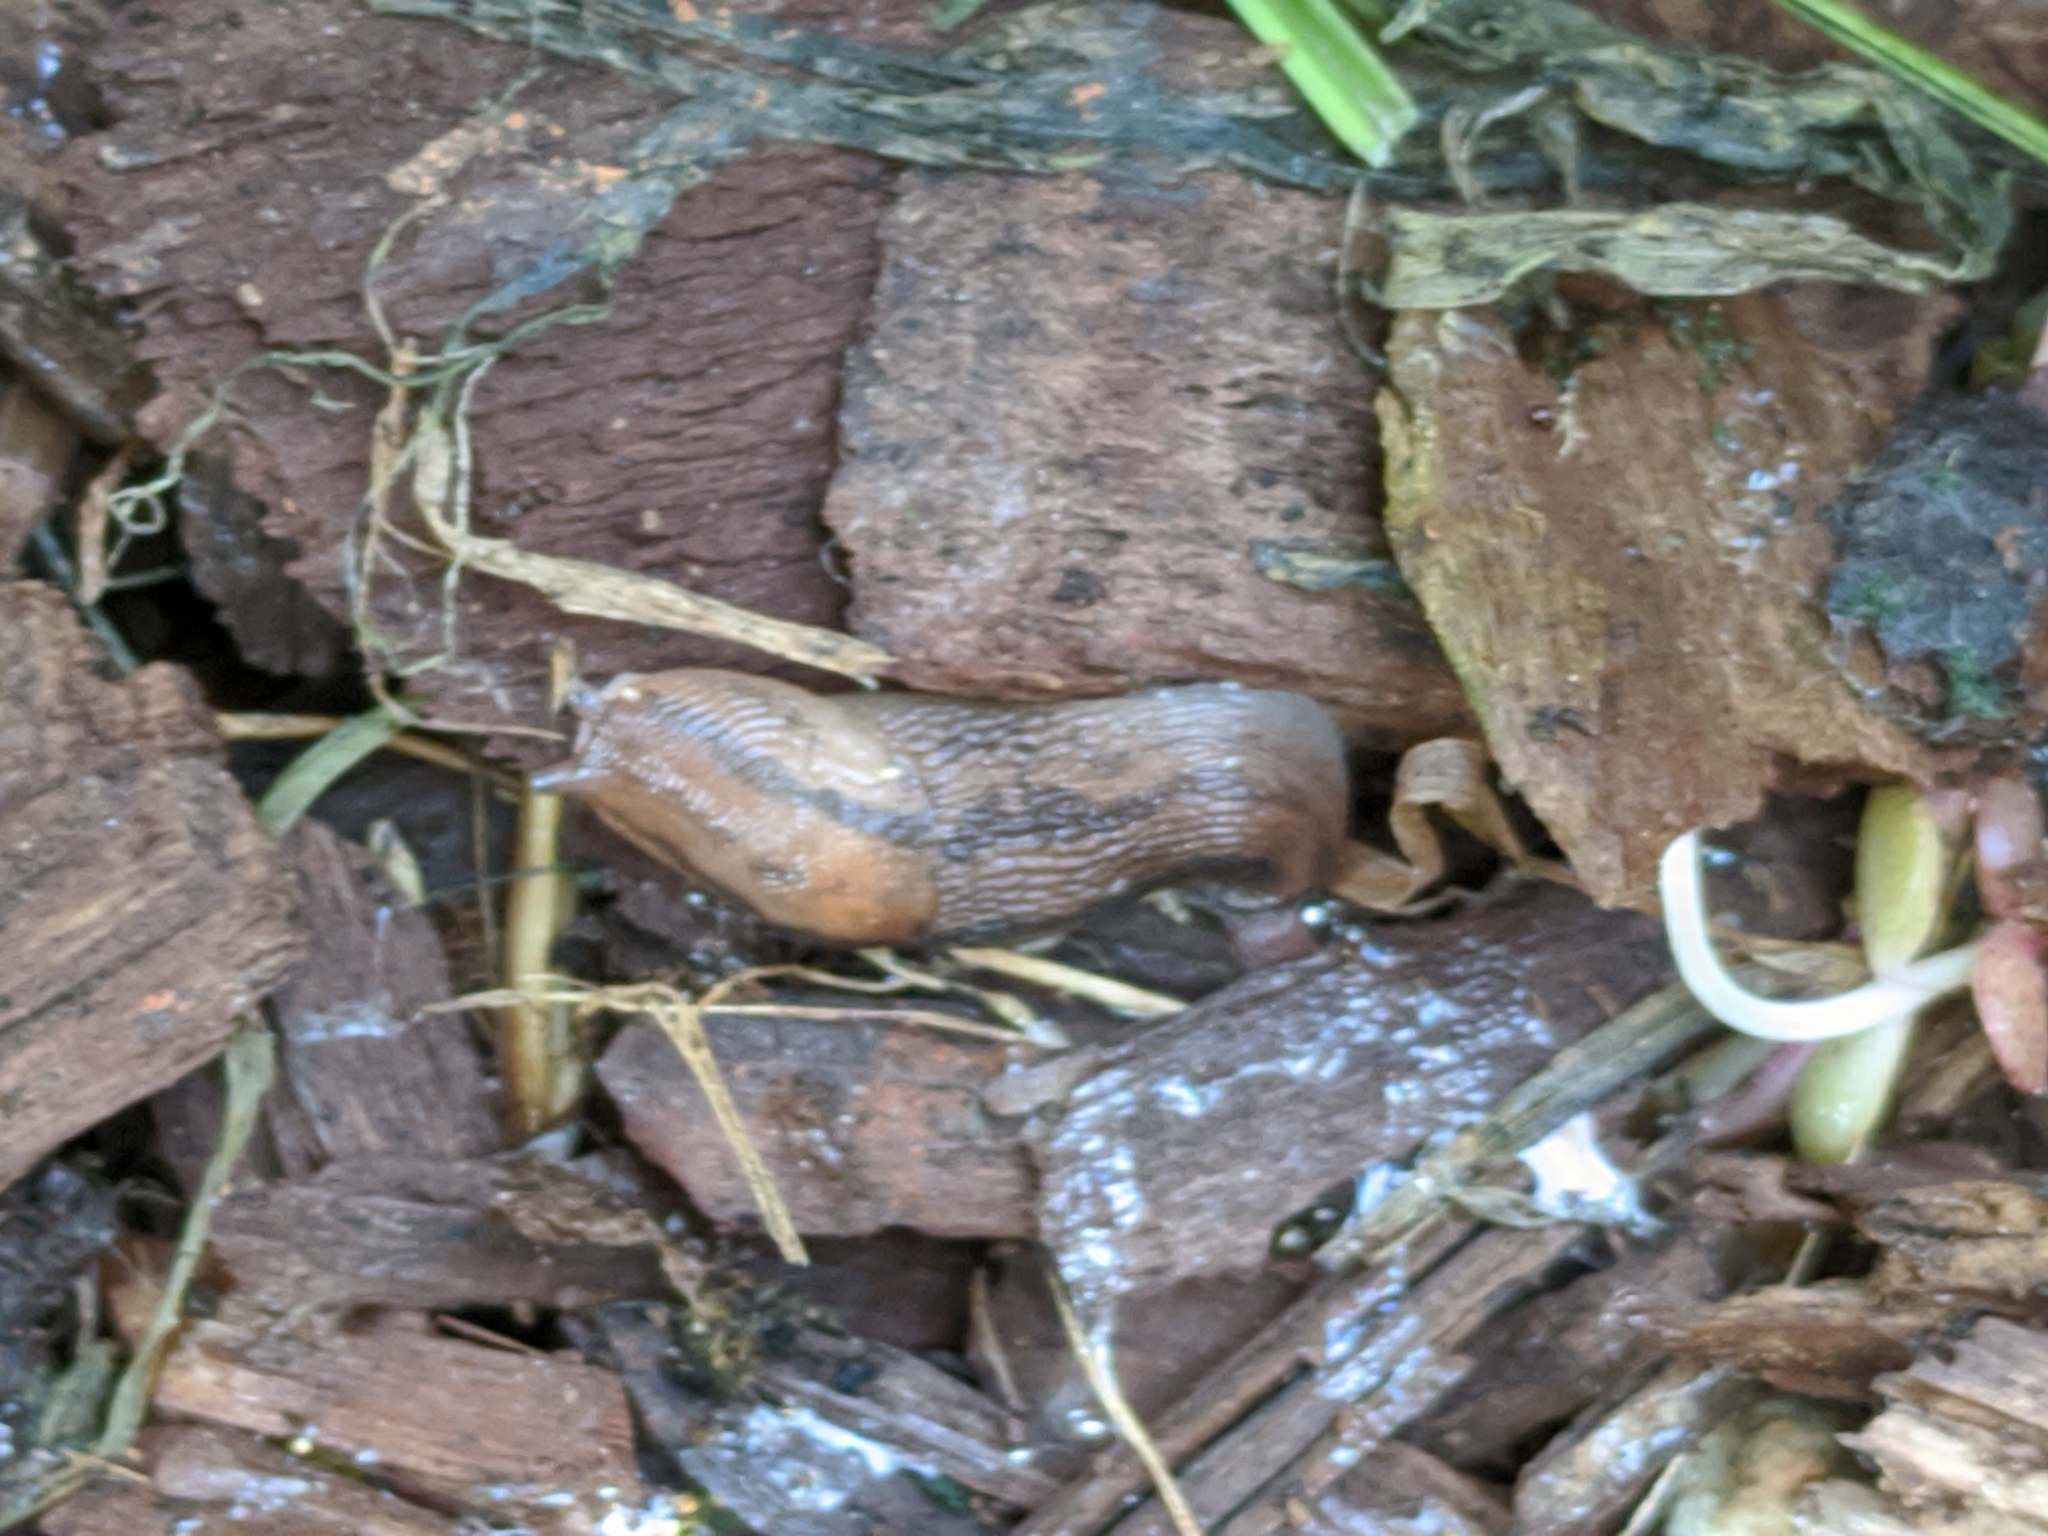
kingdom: Animalia
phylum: Mollusca
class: Gastropoda
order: Stylommatophora
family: Limacidae
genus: Ambigolimax
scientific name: Ambigolimax
